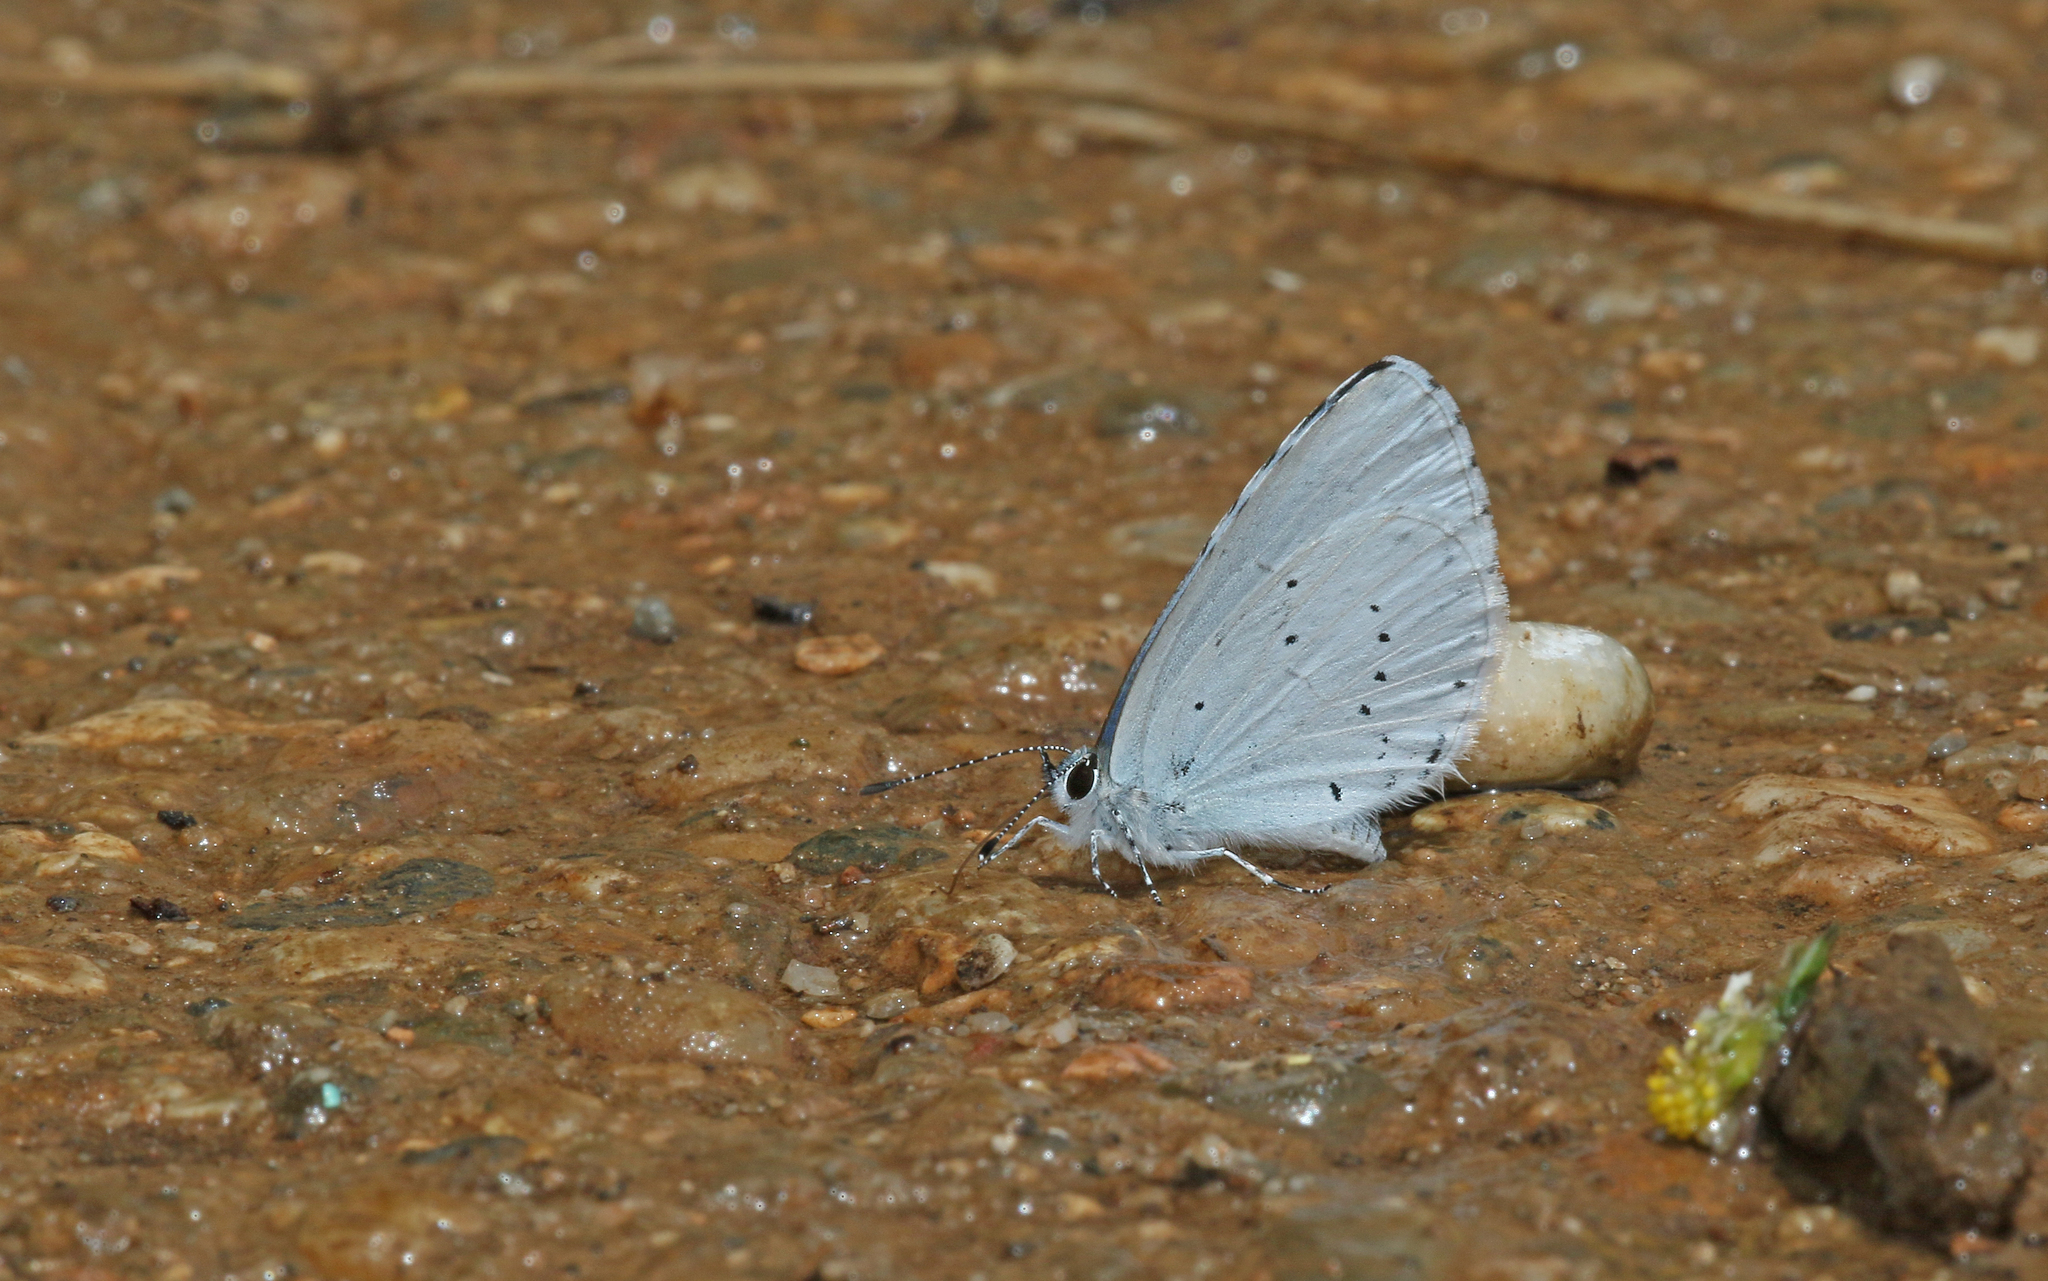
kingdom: Animalia
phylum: Arthropoda
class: Insecta
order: Lepidoptera
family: Lycaenidae
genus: Celastrina
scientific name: Celastrina argiolus
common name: Holly blue
